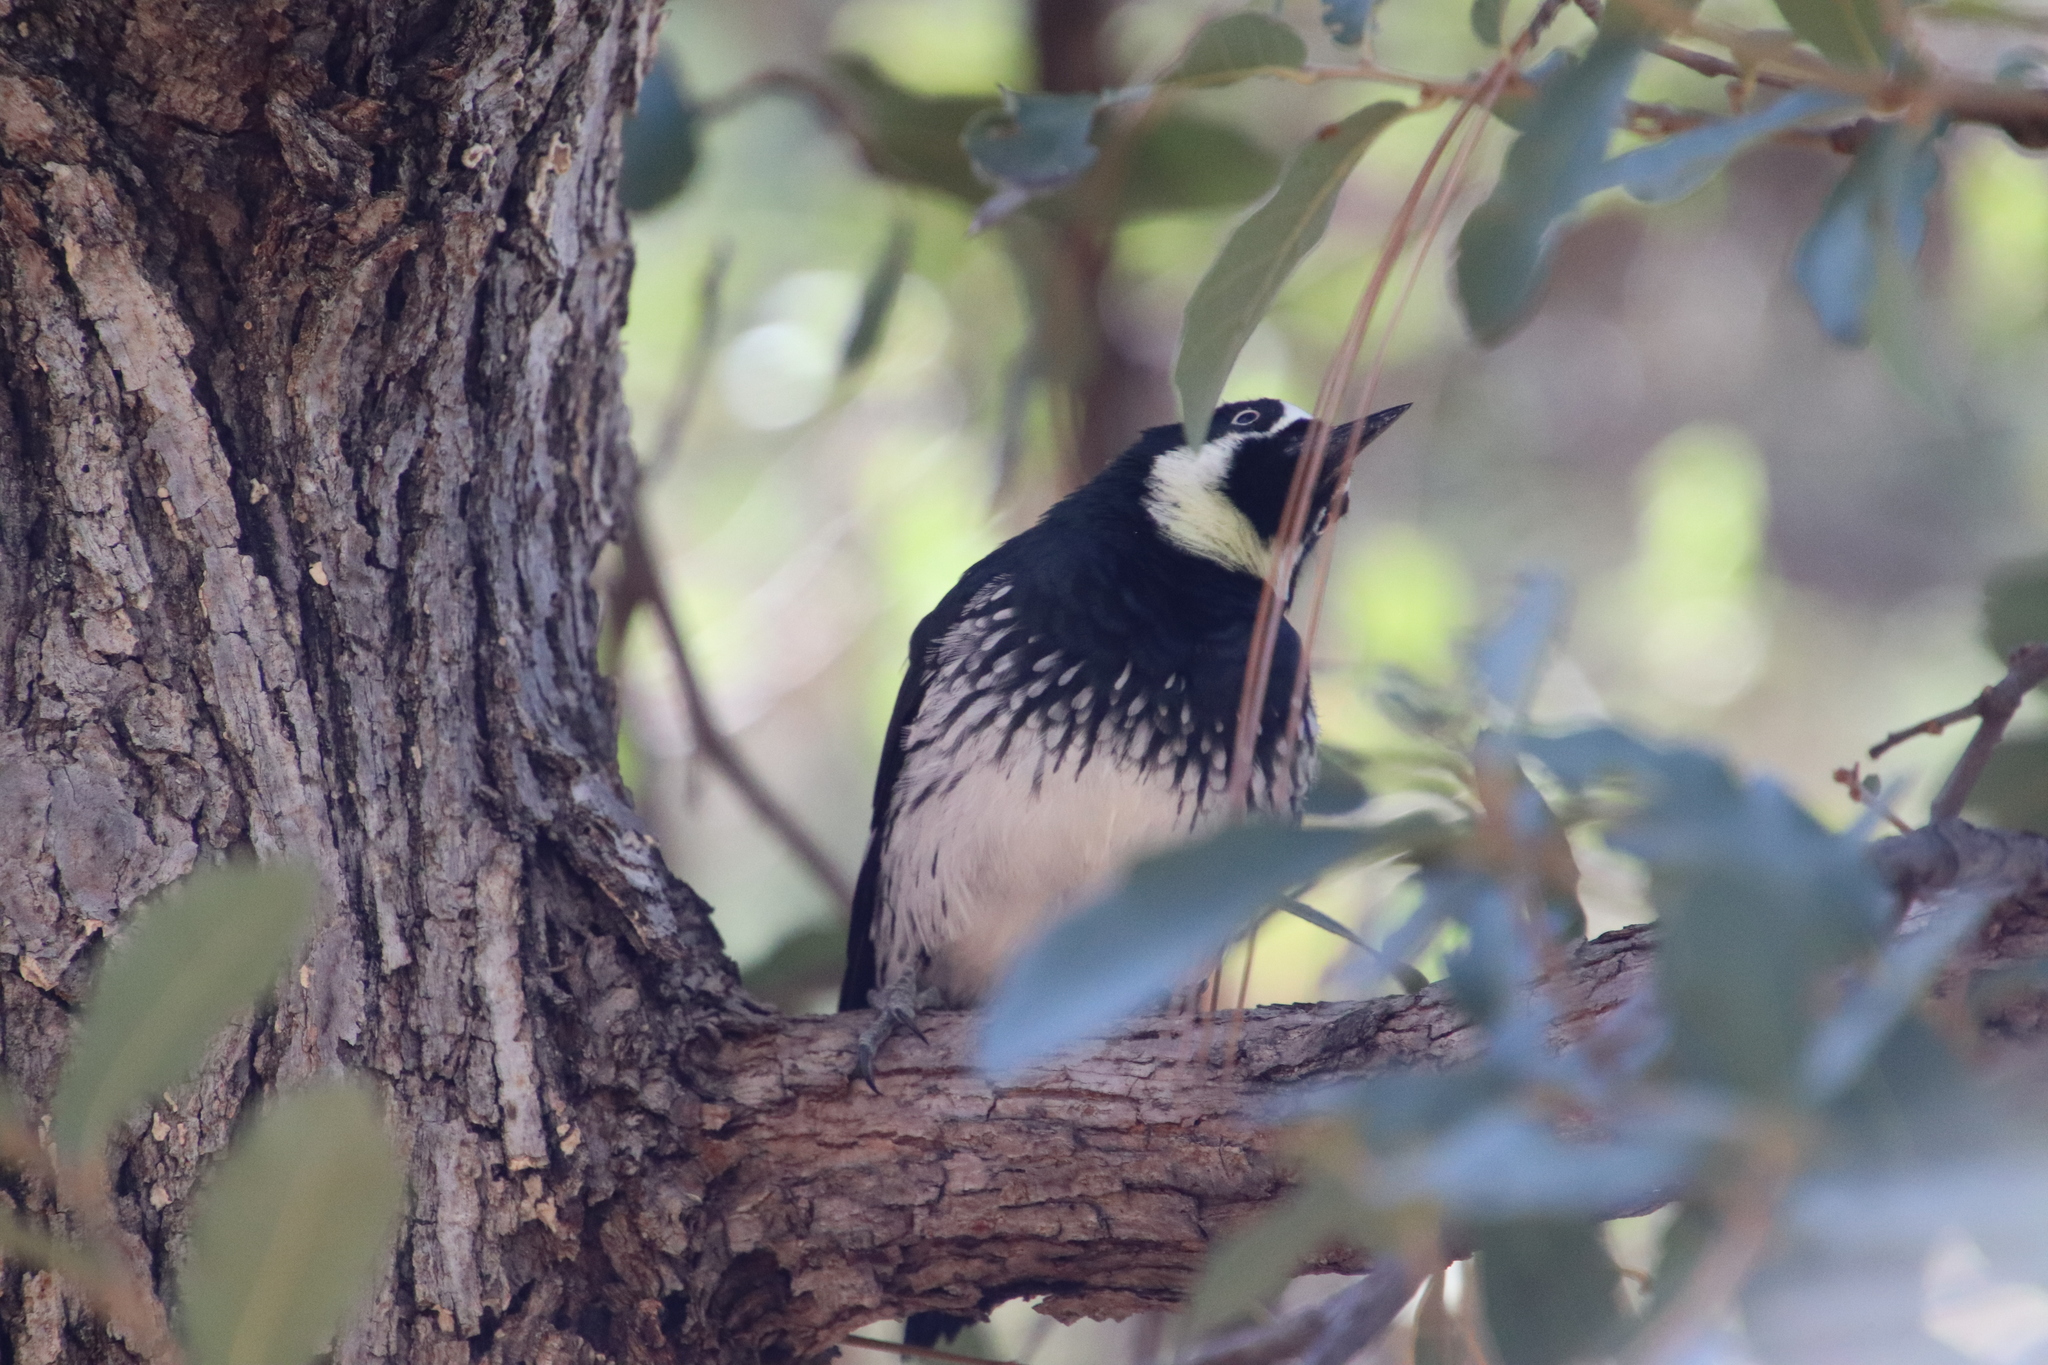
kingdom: Animalia
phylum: Chordata
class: Aves
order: Piciformes
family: Picidae
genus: Melanerpes
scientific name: Melanerpes formicivorus
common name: Acorn woodpecker
